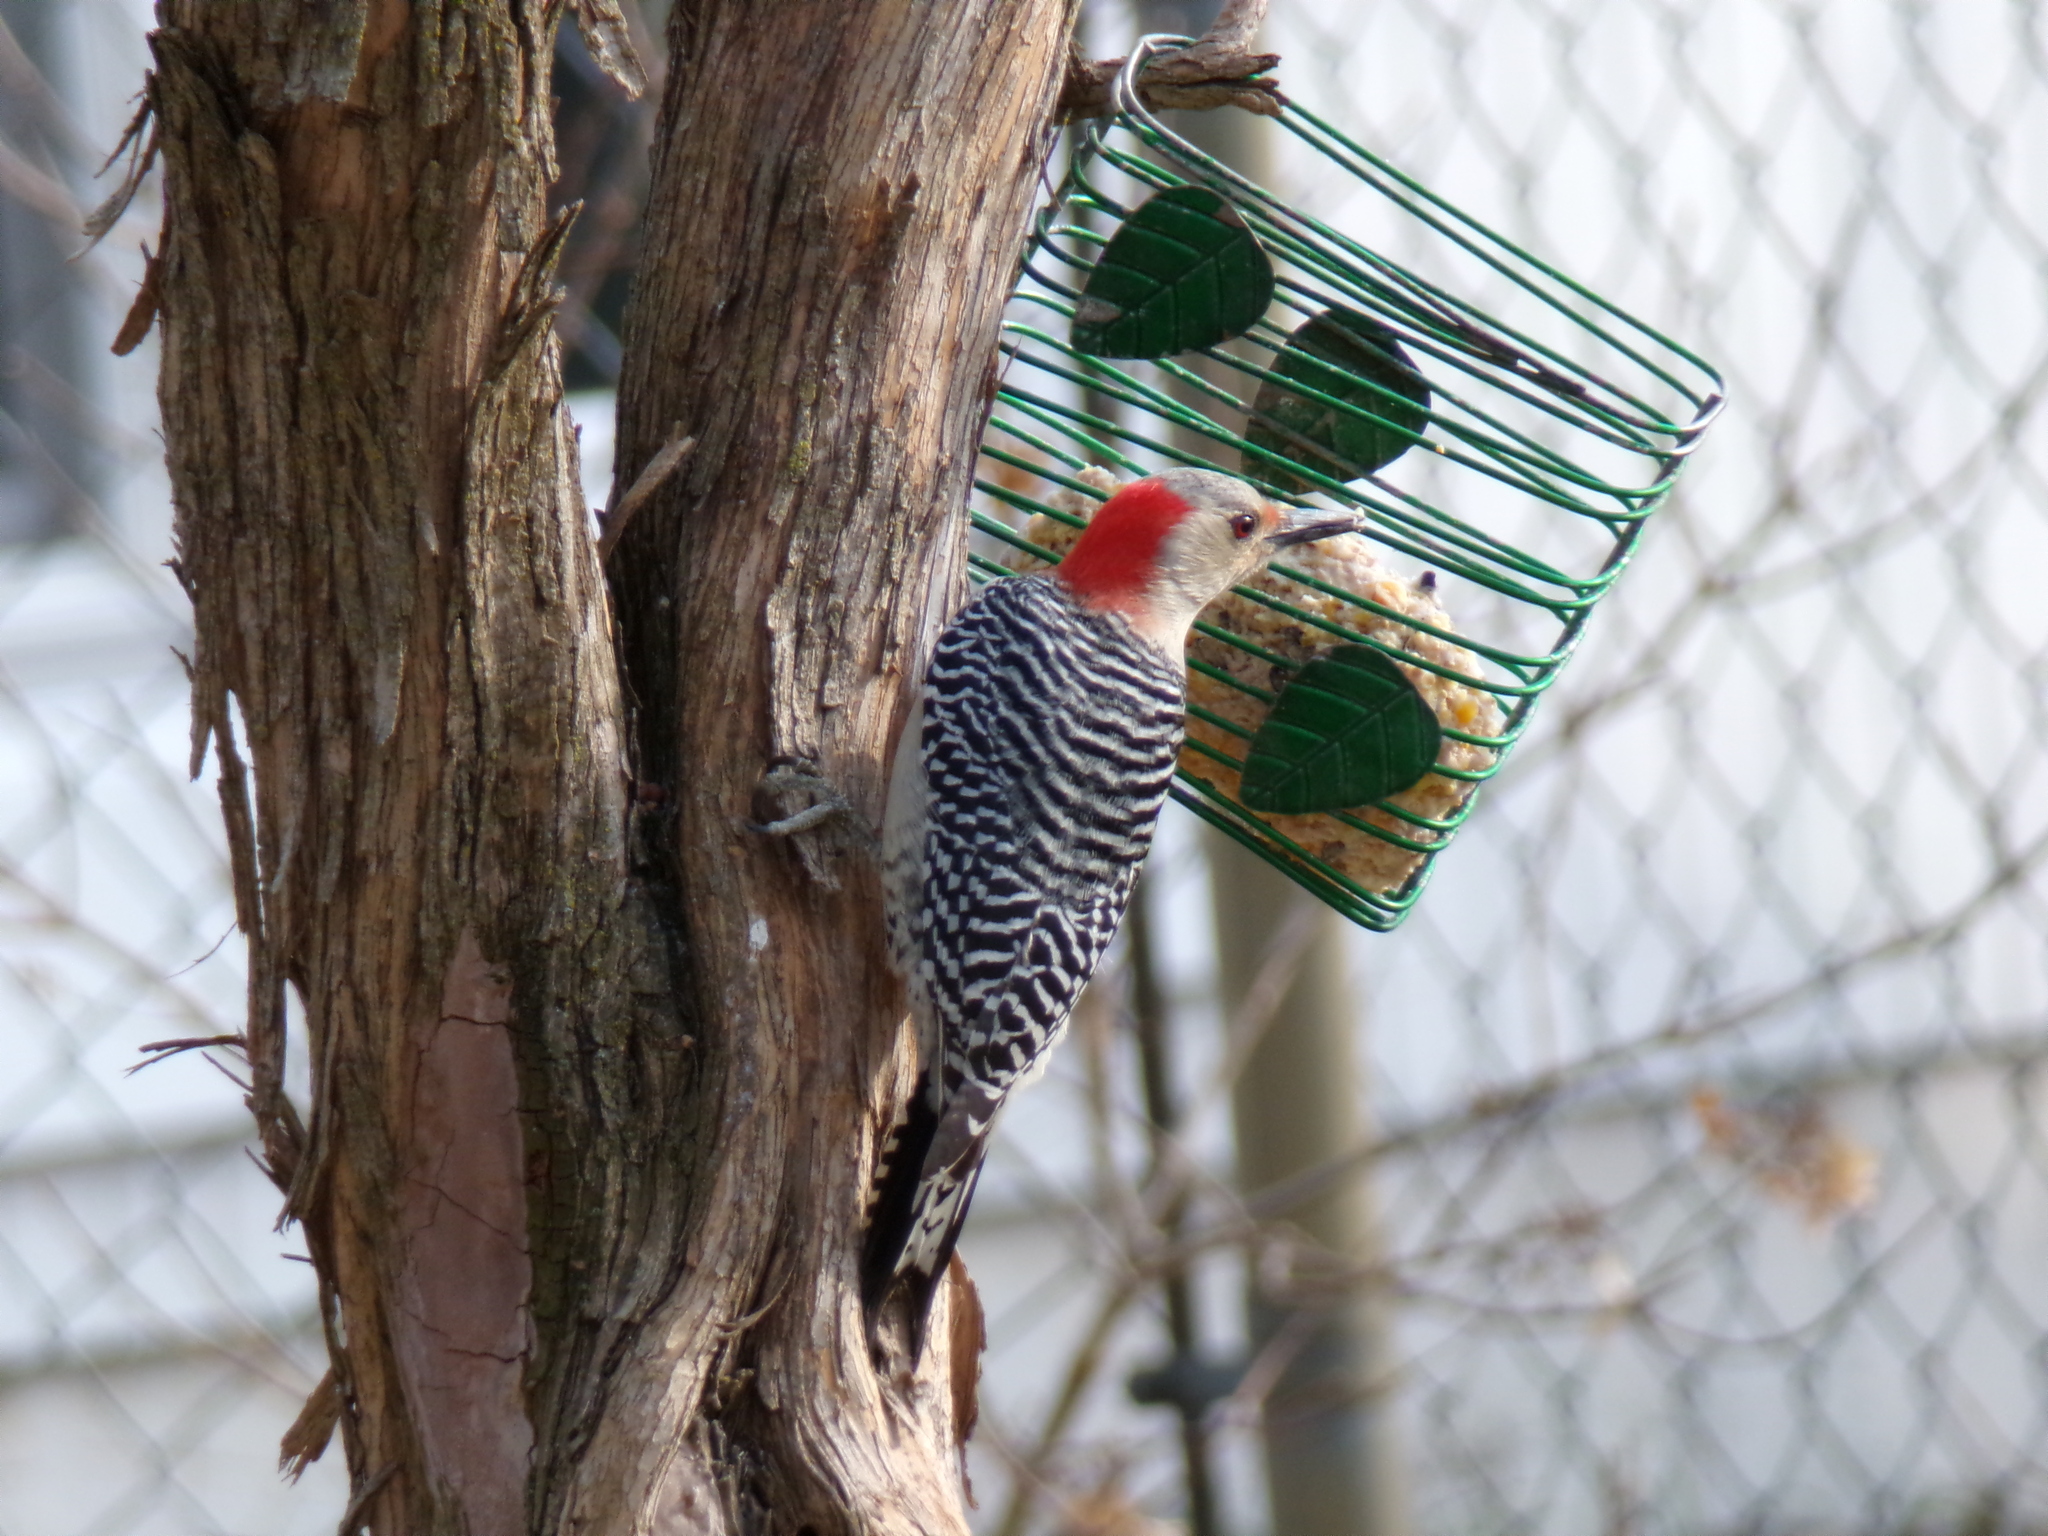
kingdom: Animalia
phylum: Chordata
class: Aves
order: Piciformes
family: Picidae
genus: Melanerpes
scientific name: Melanerpes carolinus
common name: Red-bellied woodpecker
